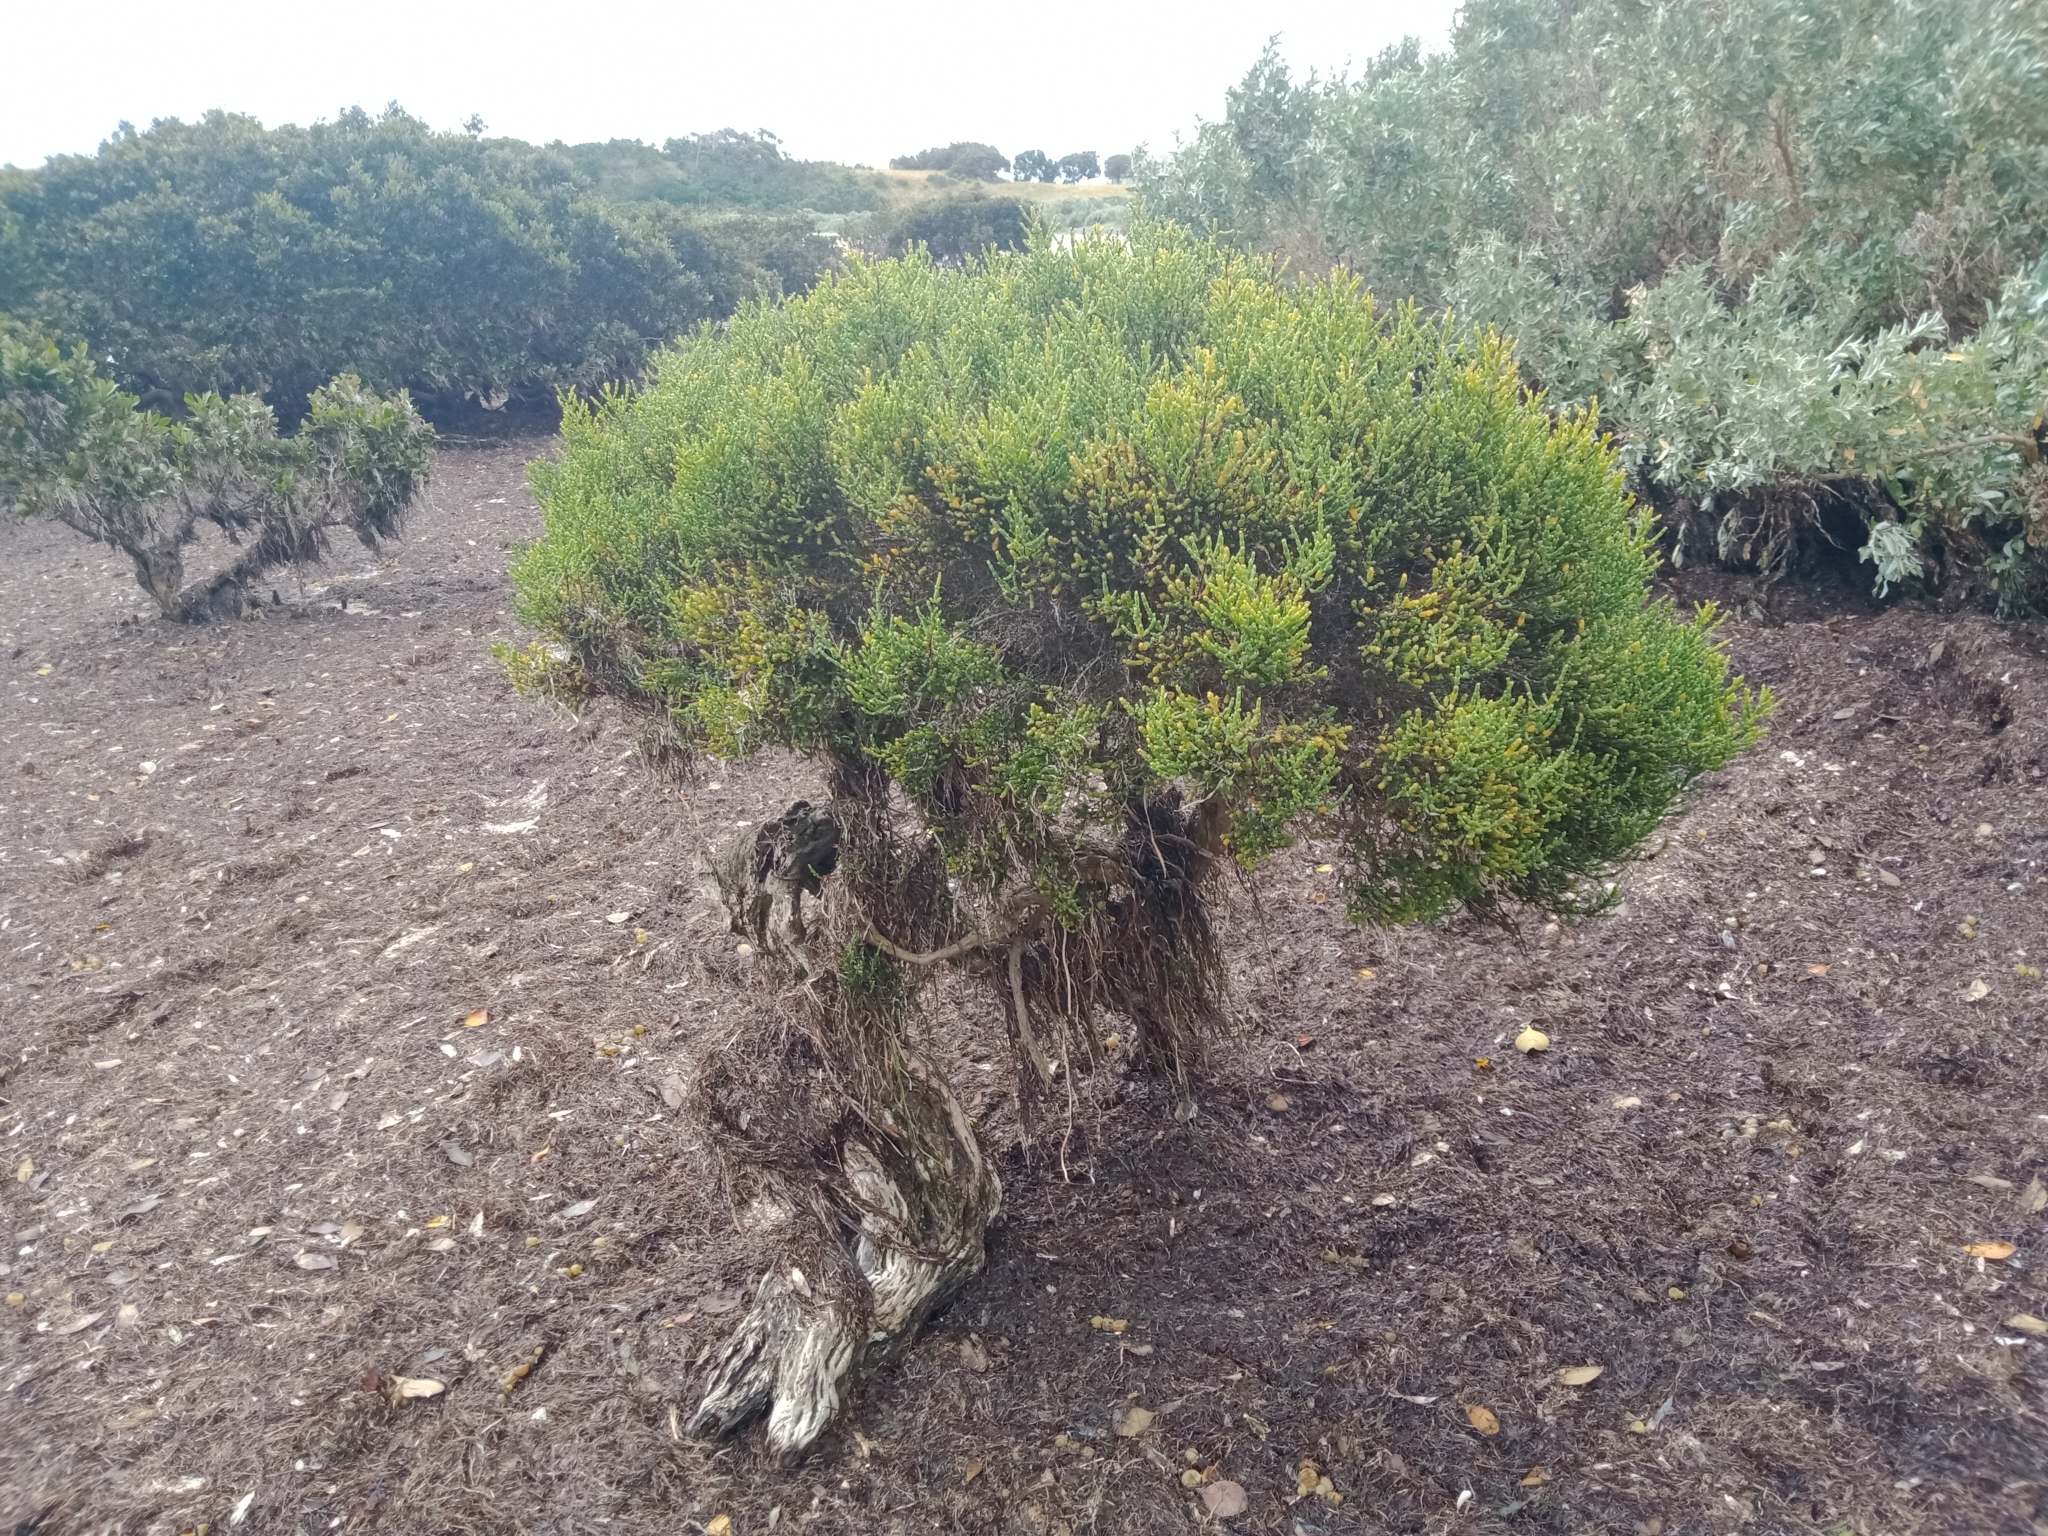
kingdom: Plantae
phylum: Tracheophyta
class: Magnoliopsida
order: Caryophyllales
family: Amaranthaceae
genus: Tecticornia
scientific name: Tecticornia arbuscula
